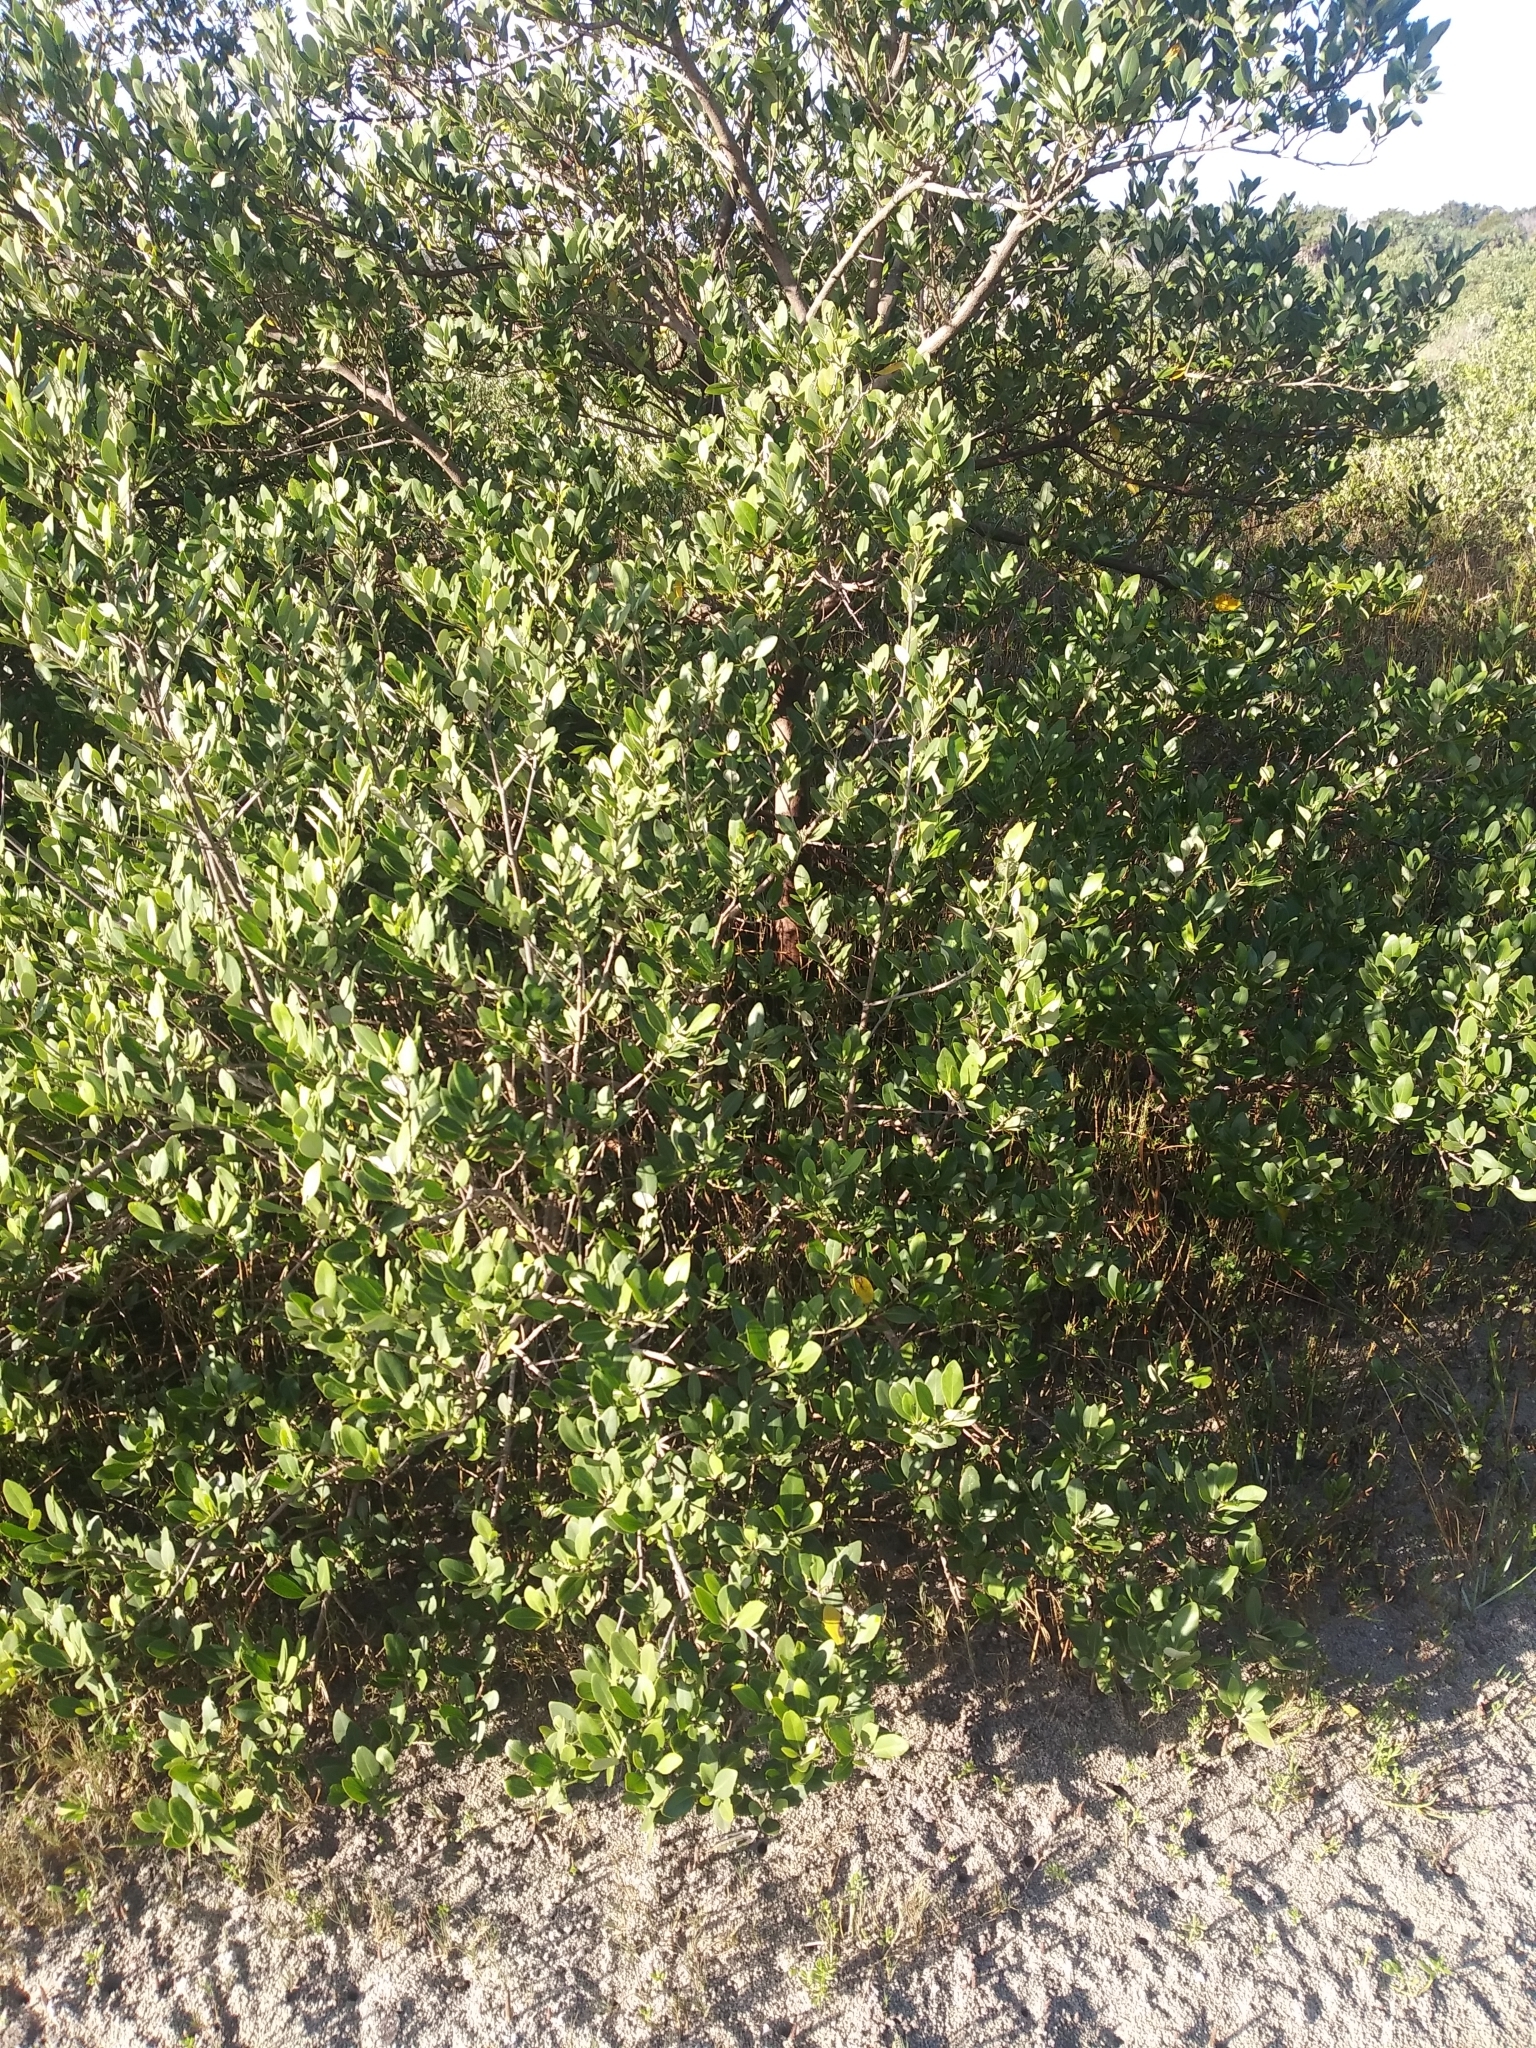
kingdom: Plantae
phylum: Tracheophyta
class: Magnoliopsida
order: Lamiales
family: Acanthaceae
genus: Avicennia
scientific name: Avicennia germinans
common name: Black mangrove
